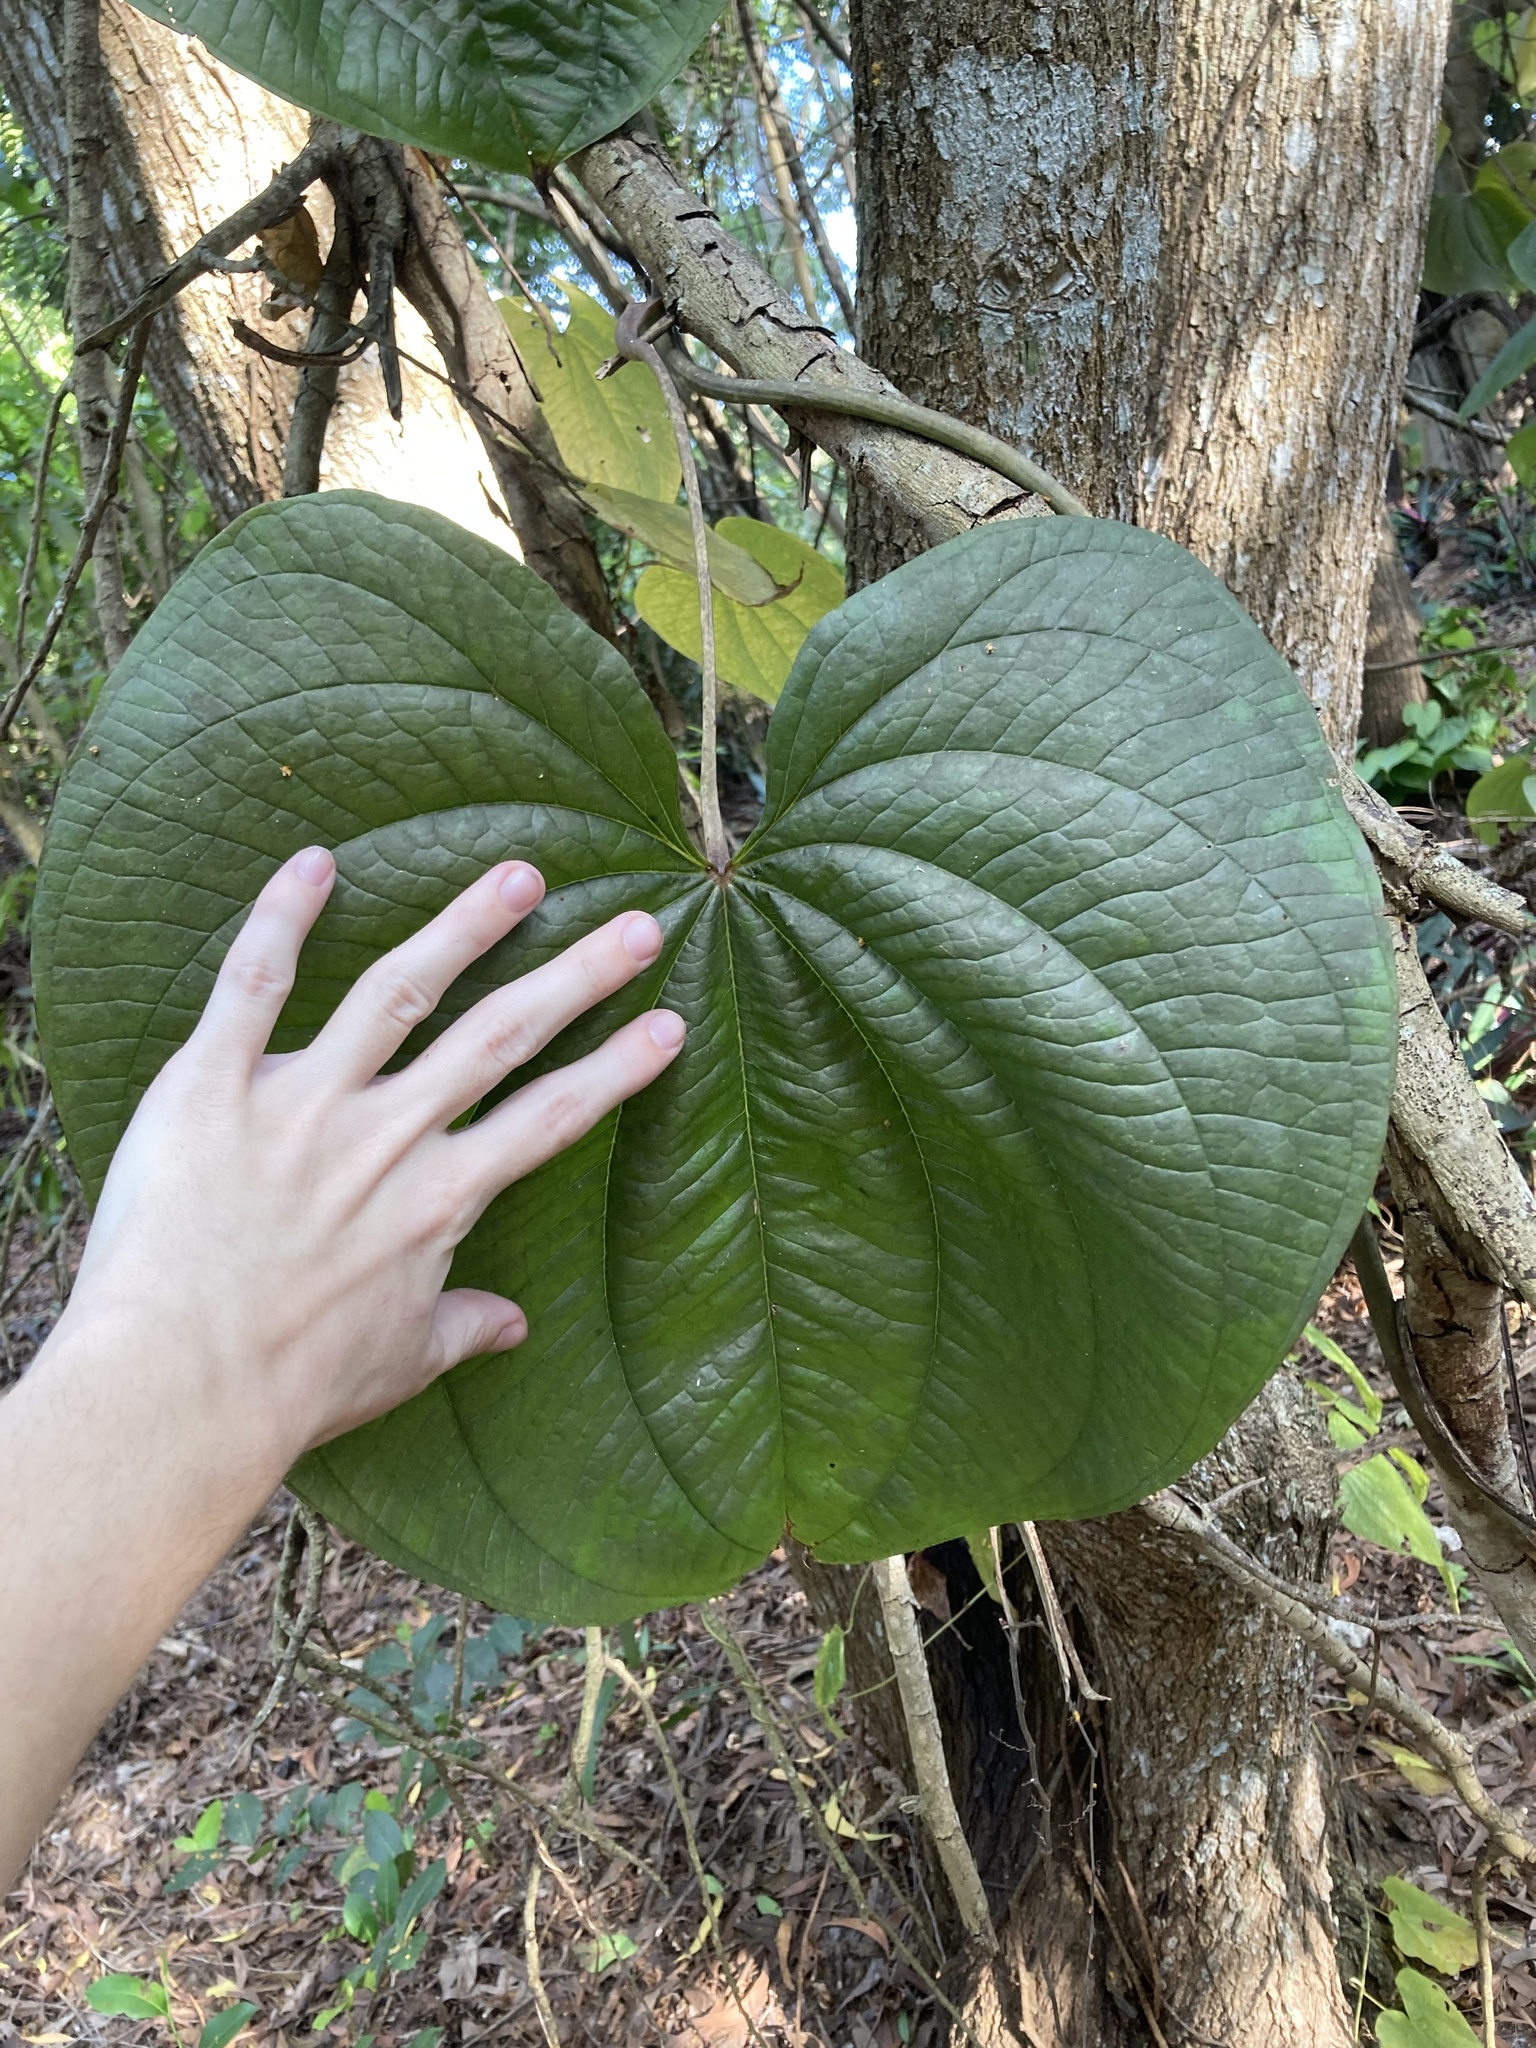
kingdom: Plantae
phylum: Tracheophyta
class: Liliopsida
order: Dioscoreales
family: Dioscoreaceae
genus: Dioscorea
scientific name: Dioscorea bulbifera
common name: Air yam
